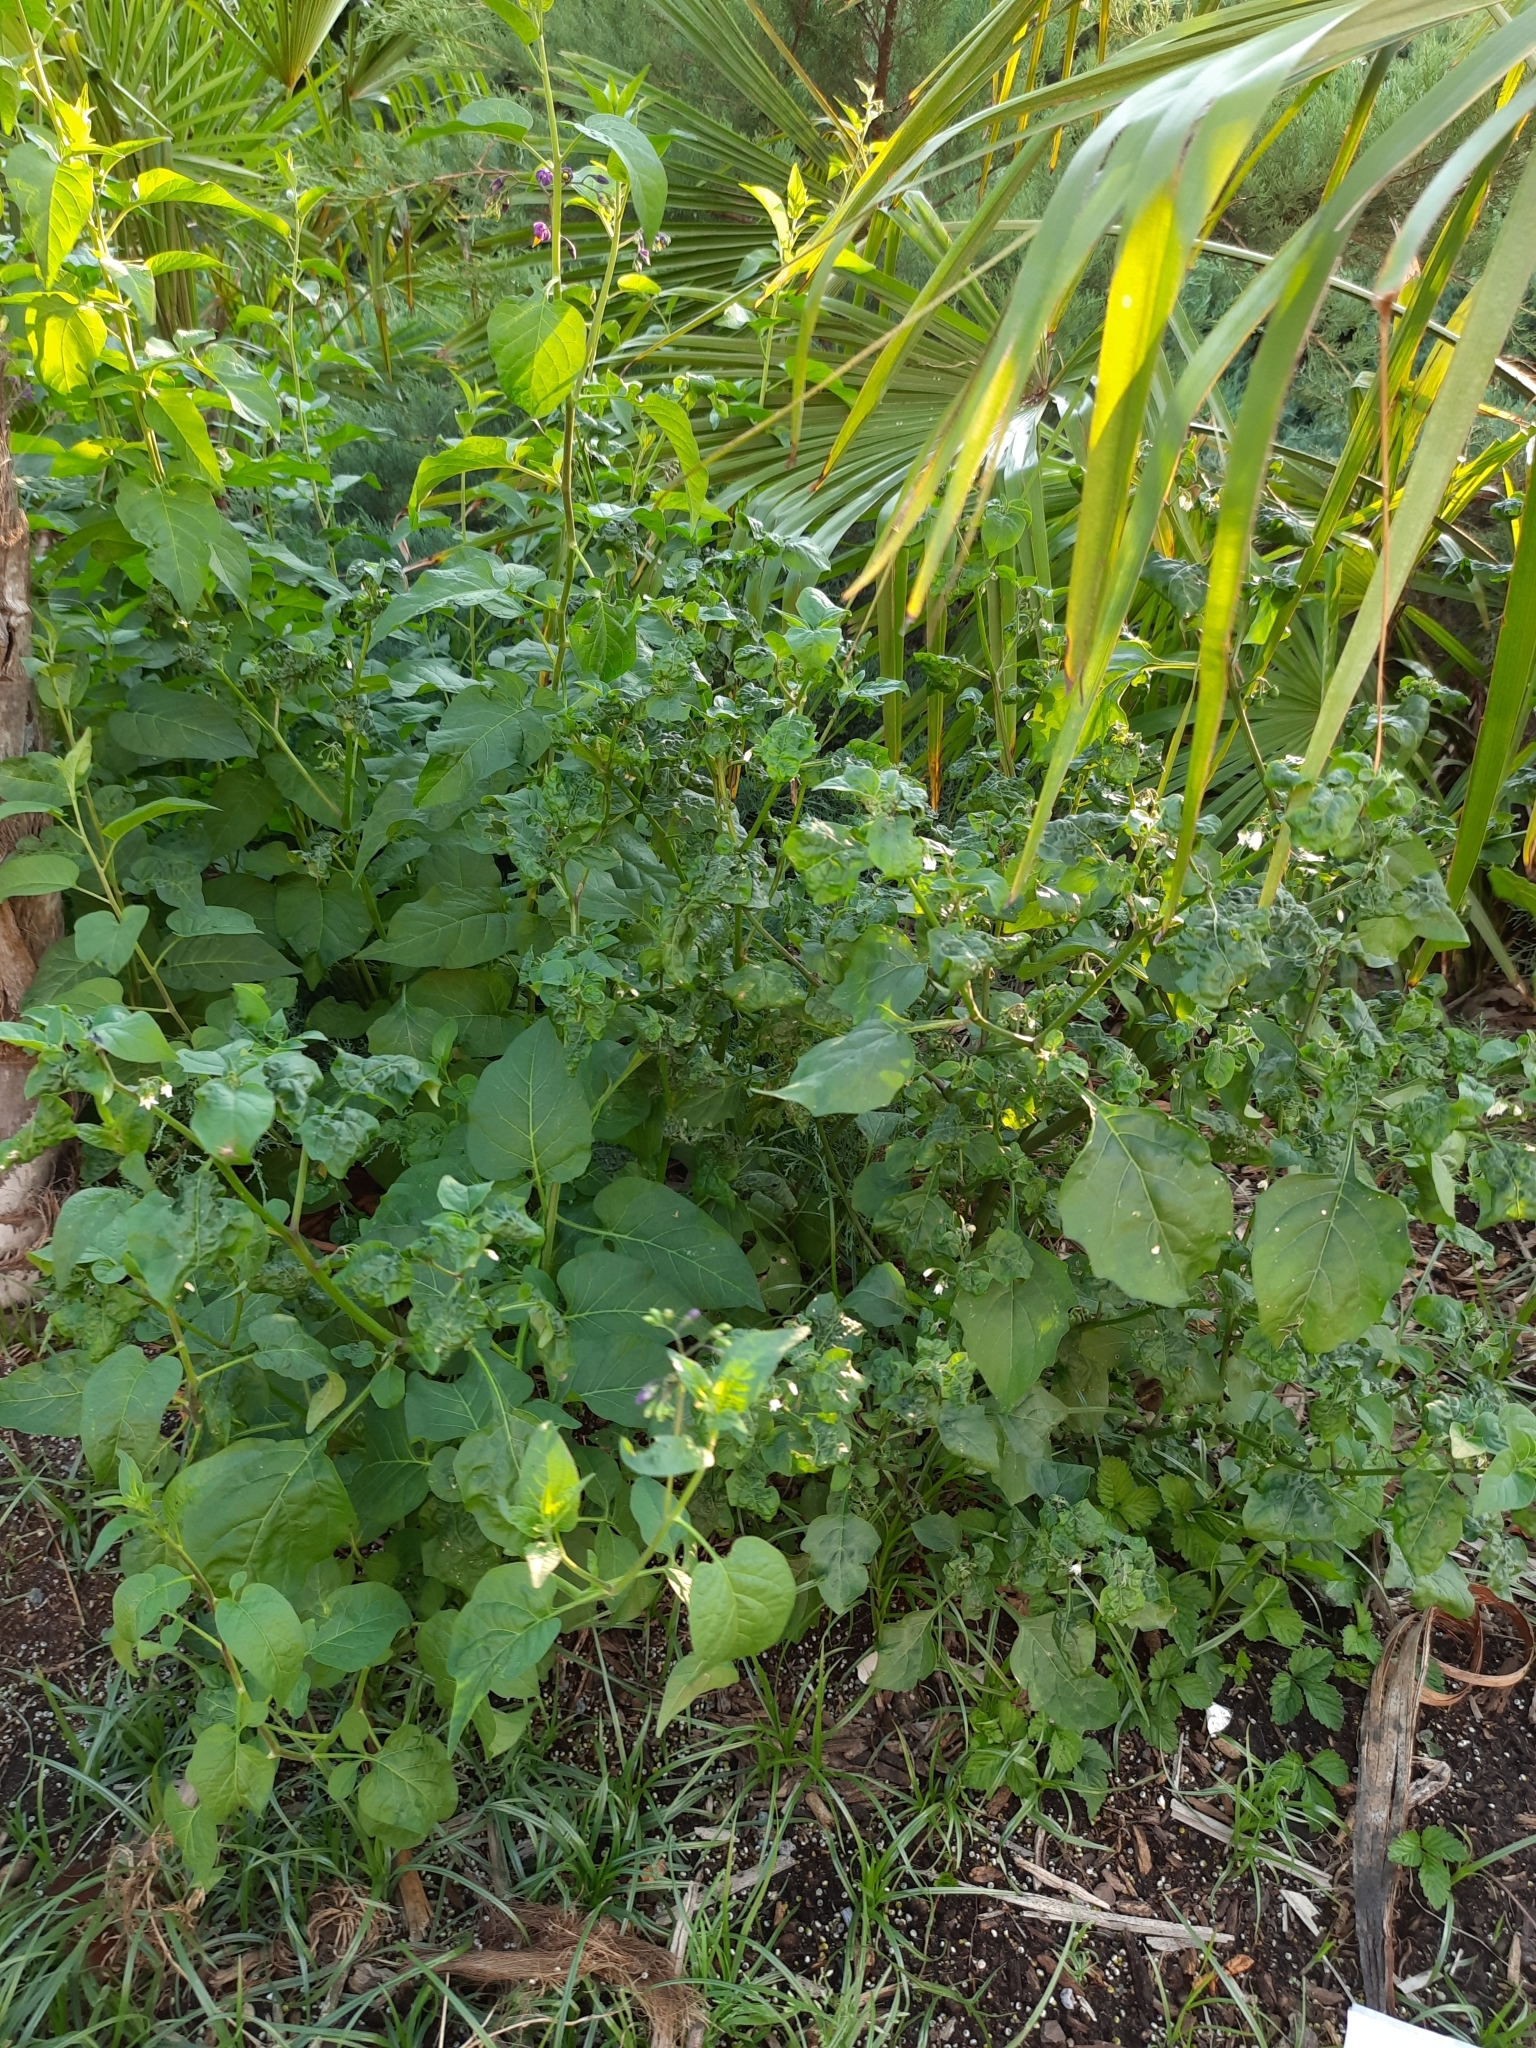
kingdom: Plantae
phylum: Tracheophyta
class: Magnoliopsida
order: Solanales
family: Solanaceae
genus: Solanum
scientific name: Solanum dulcamara
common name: Climbing nightshade
